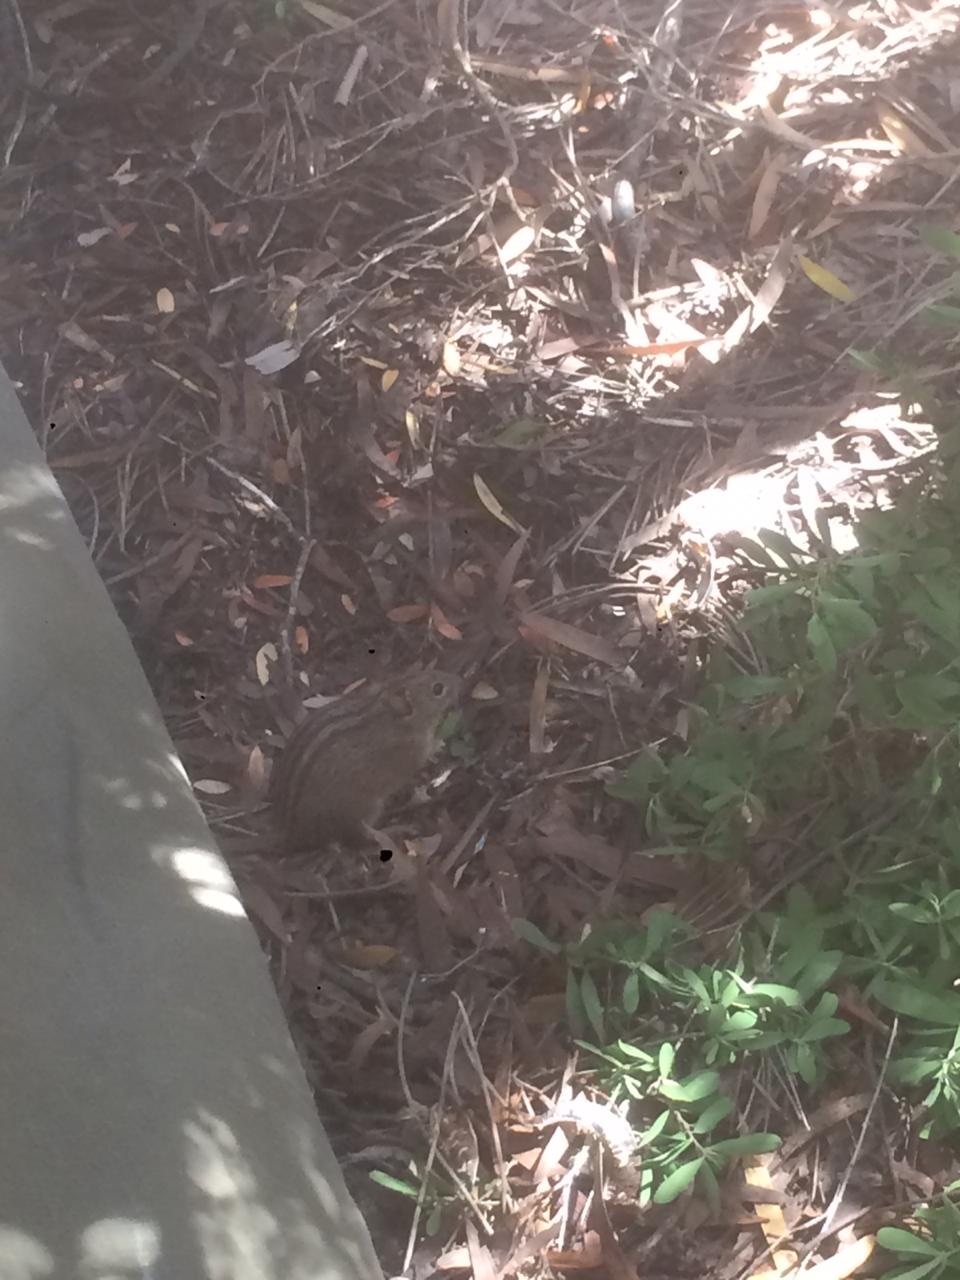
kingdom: Animalia
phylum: Chordata
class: Mammalia
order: Rodentia
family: Muridae
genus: Rhabdomys
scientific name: Rhabdomys pumilio
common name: Xeric four-striped grass rat
